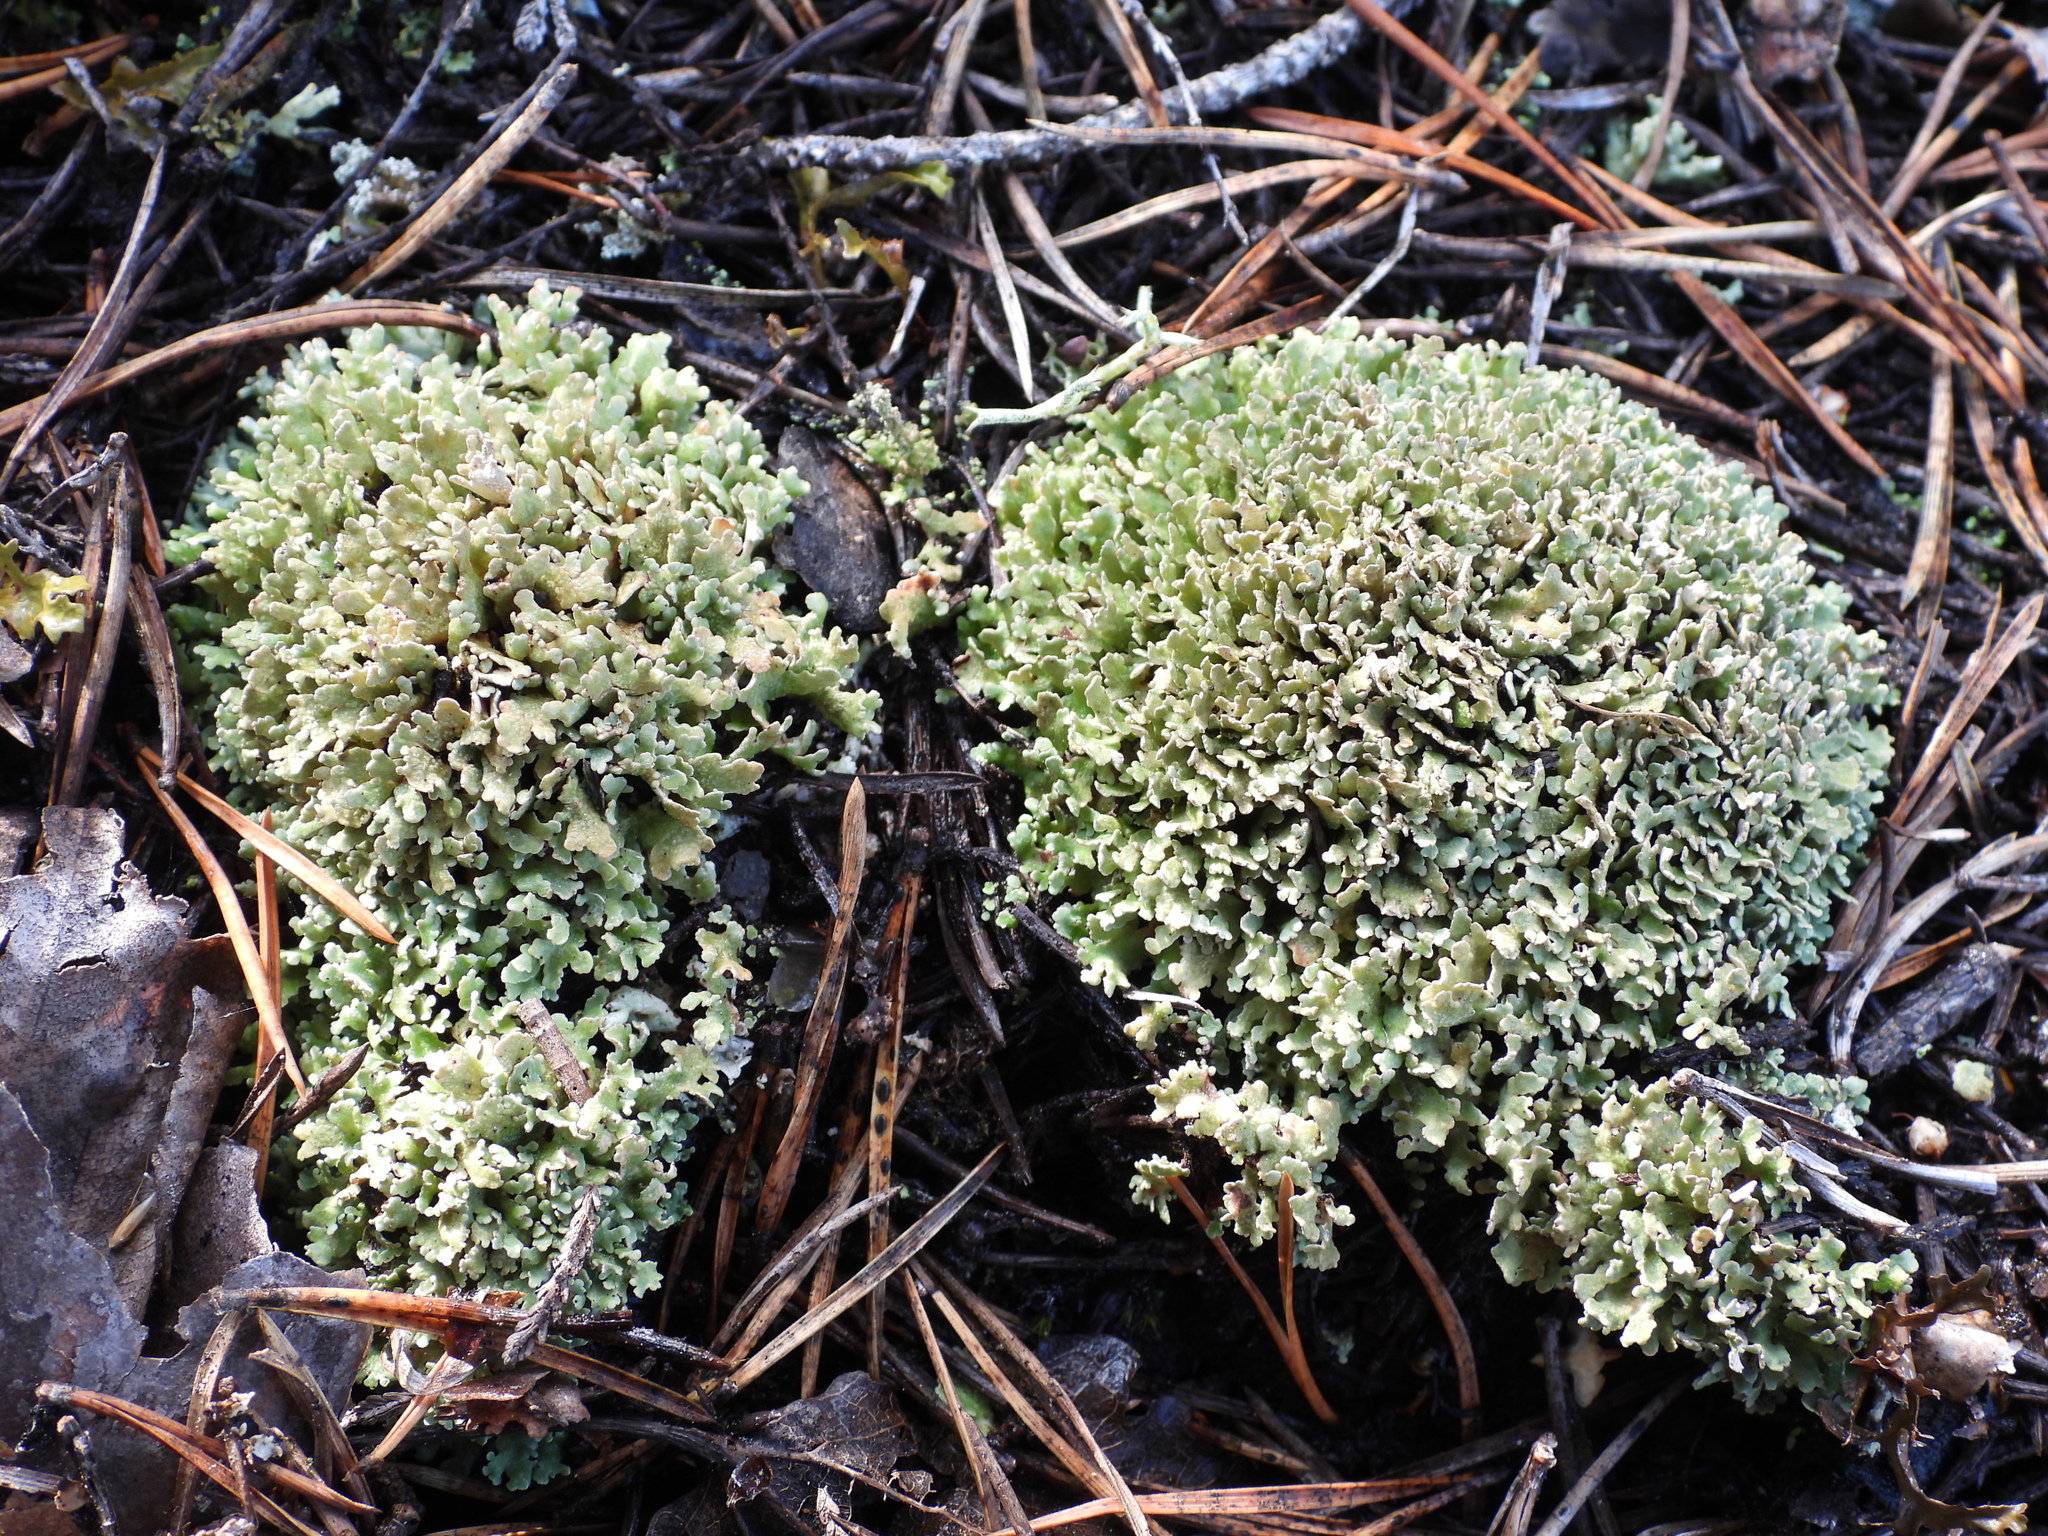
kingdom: Fungi
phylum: Ascomycota
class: Lecanoromycetes
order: Lecanorales
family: Cladoniaceae
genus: Cladonia
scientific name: Cladonia strepsilis
